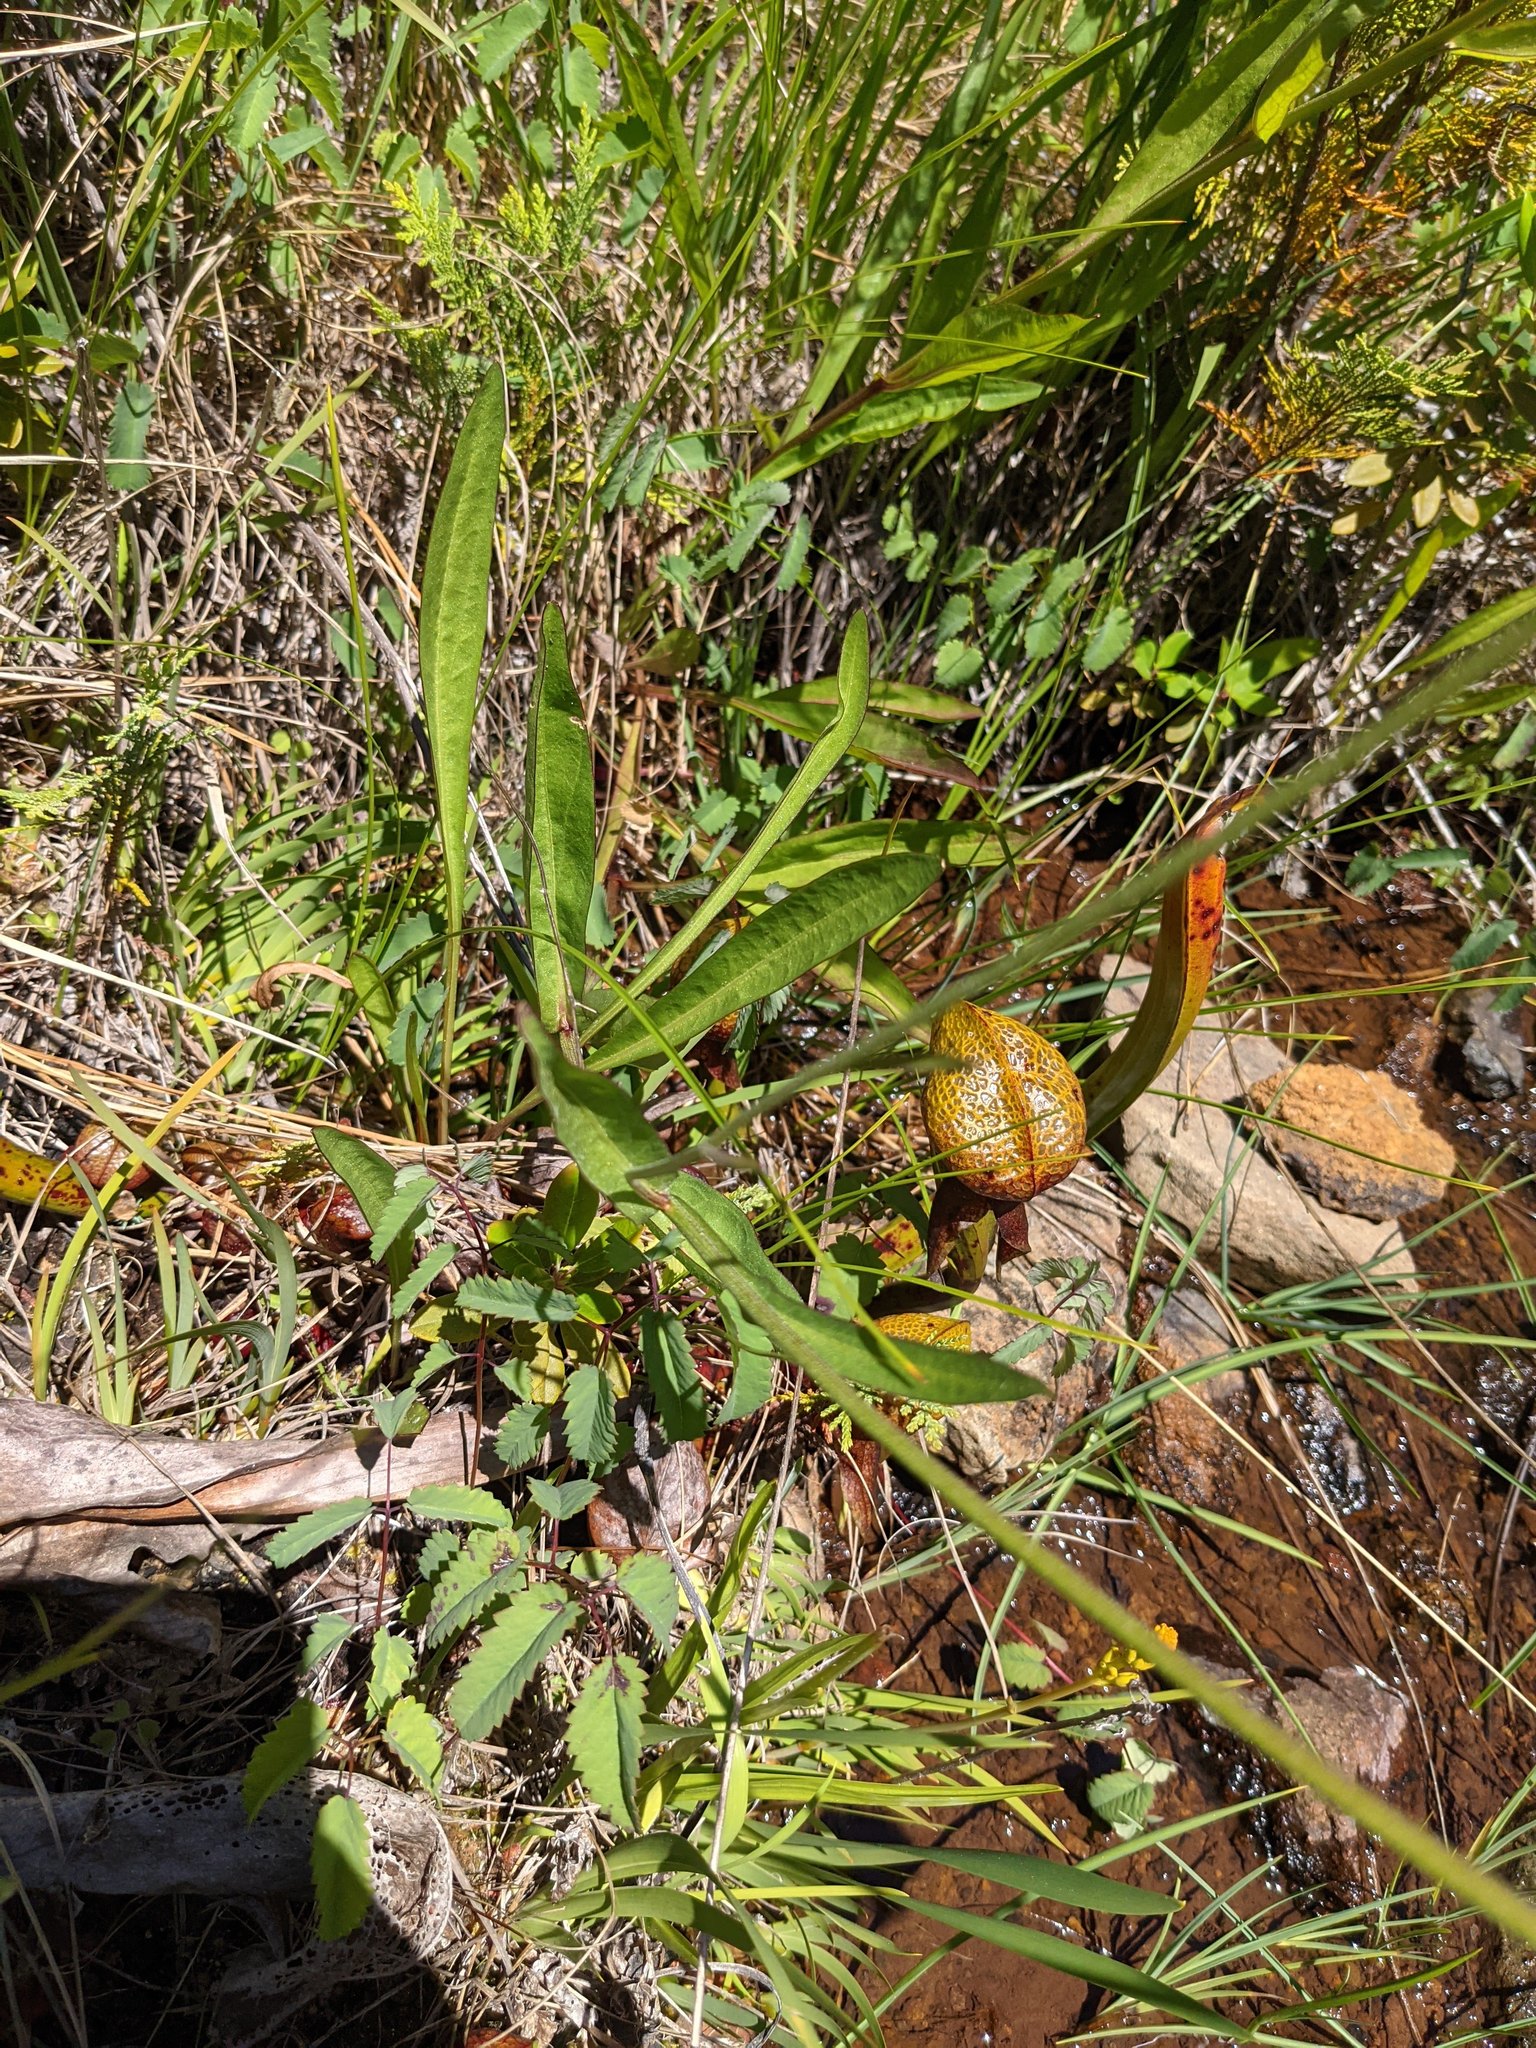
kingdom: Plantae
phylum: Tracheophyta
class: Magnoliopsida
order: Asterales
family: Asteraceae
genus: Helenium
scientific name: Helenium bigelovii
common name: Bigelow's sneezeweed
